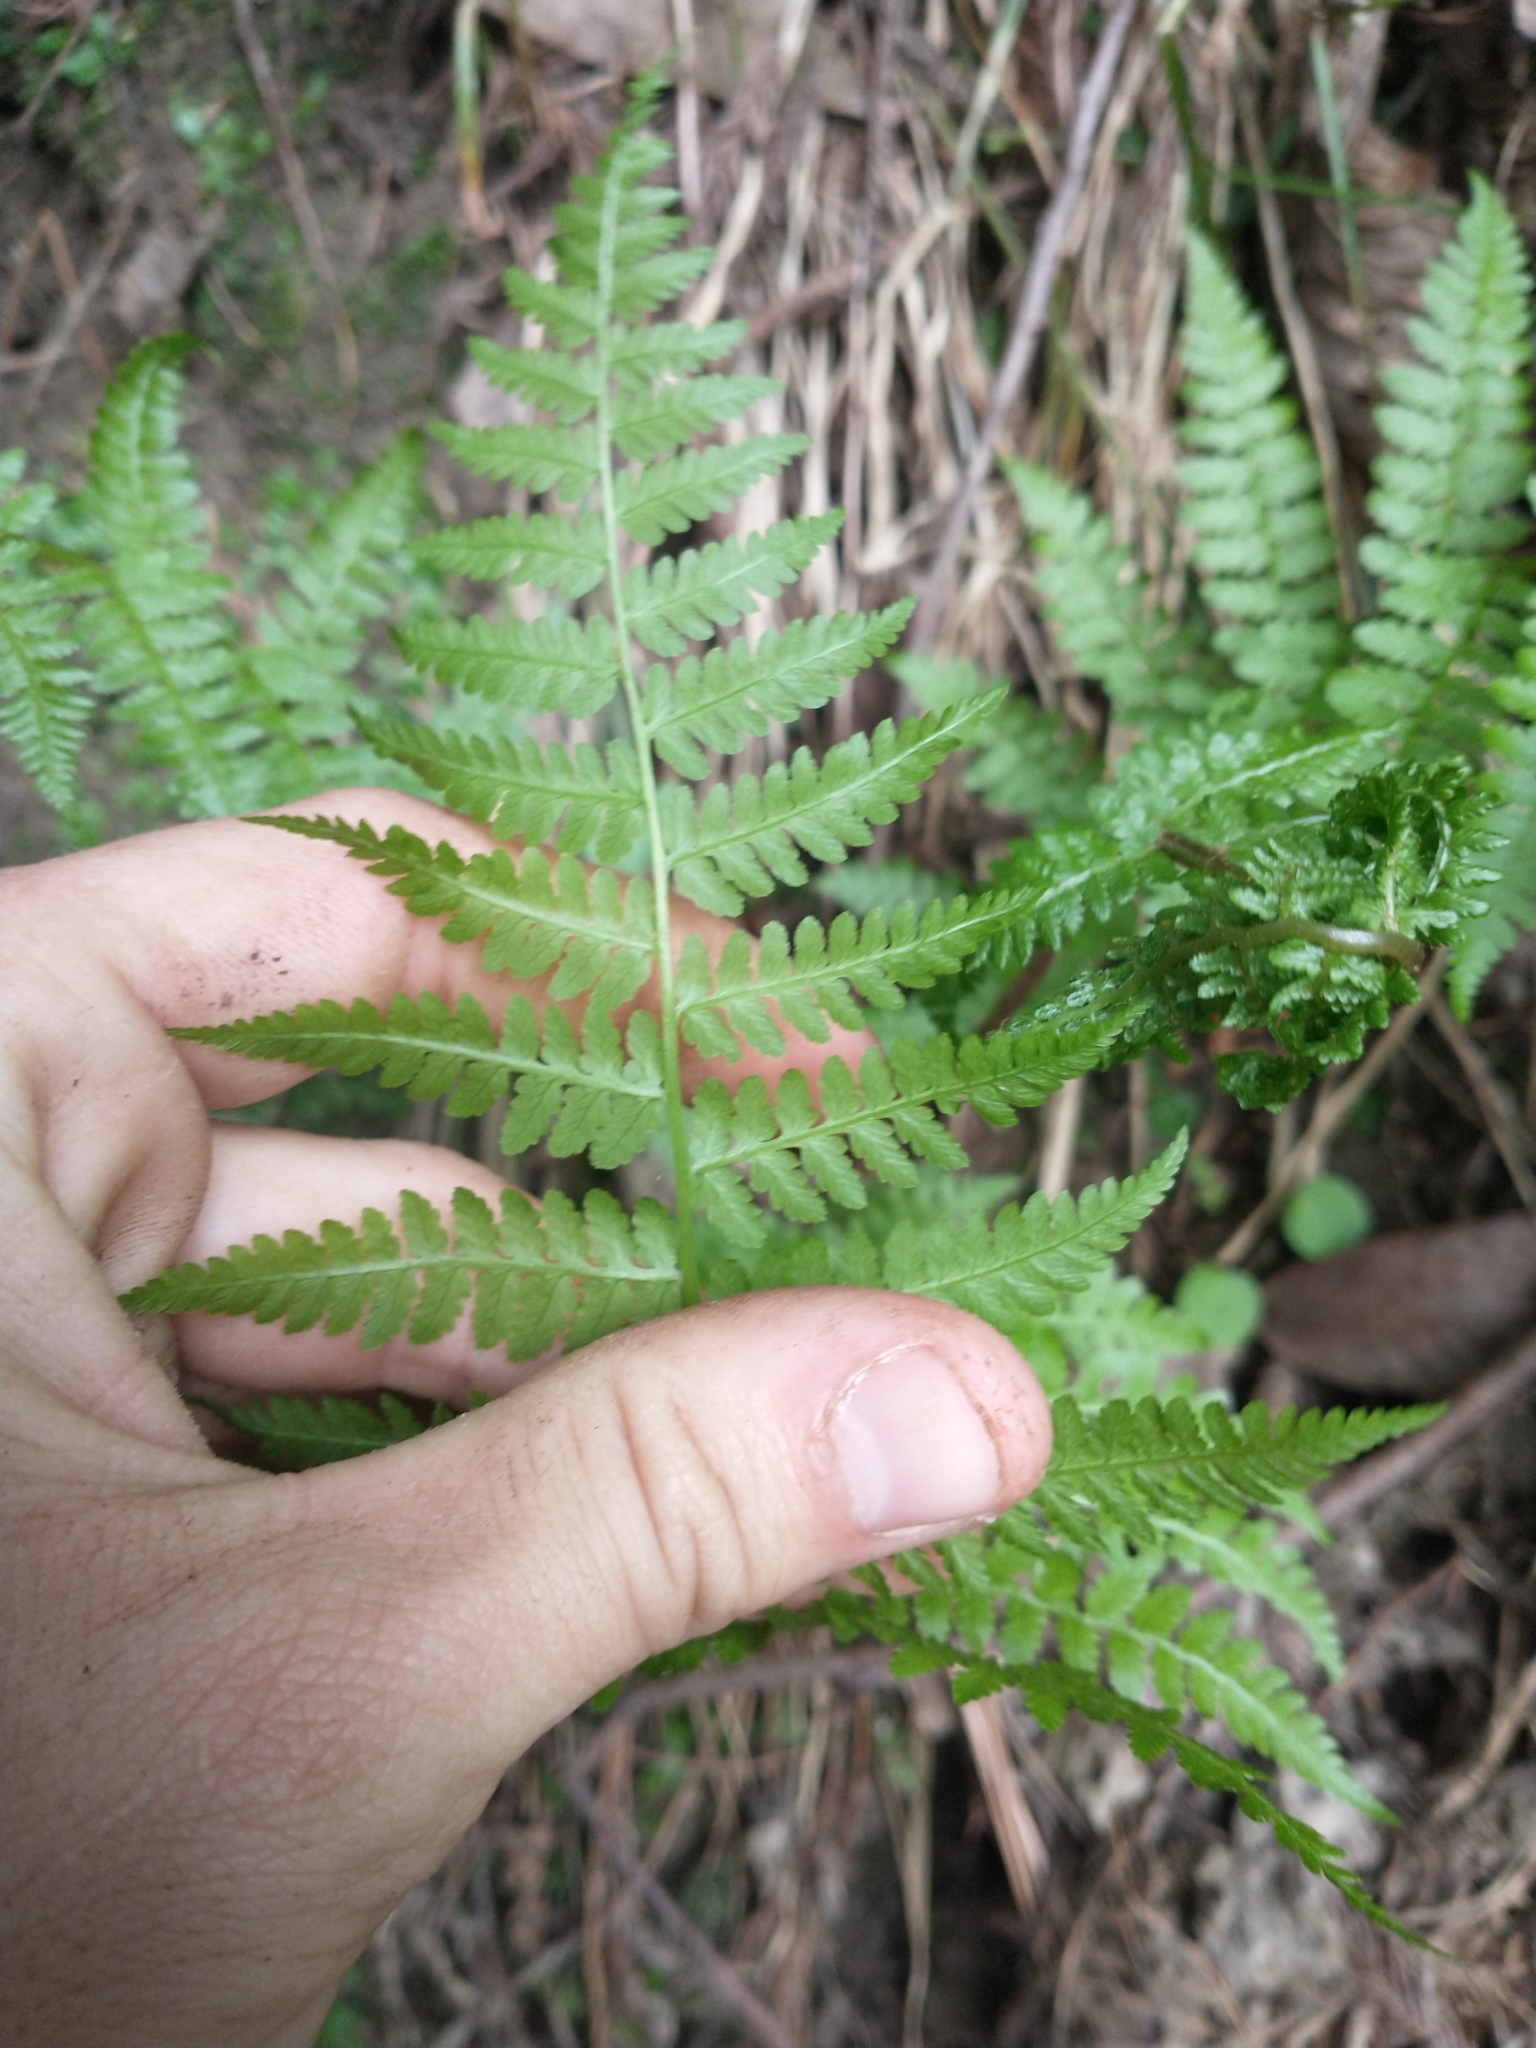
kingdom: Plantae
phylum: Tracheophyta
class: Polypodiopsida
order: Polypodiales
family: Athyriaceae
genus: Athyrium
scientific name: Athyrium filix-femina
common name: Lady fern
